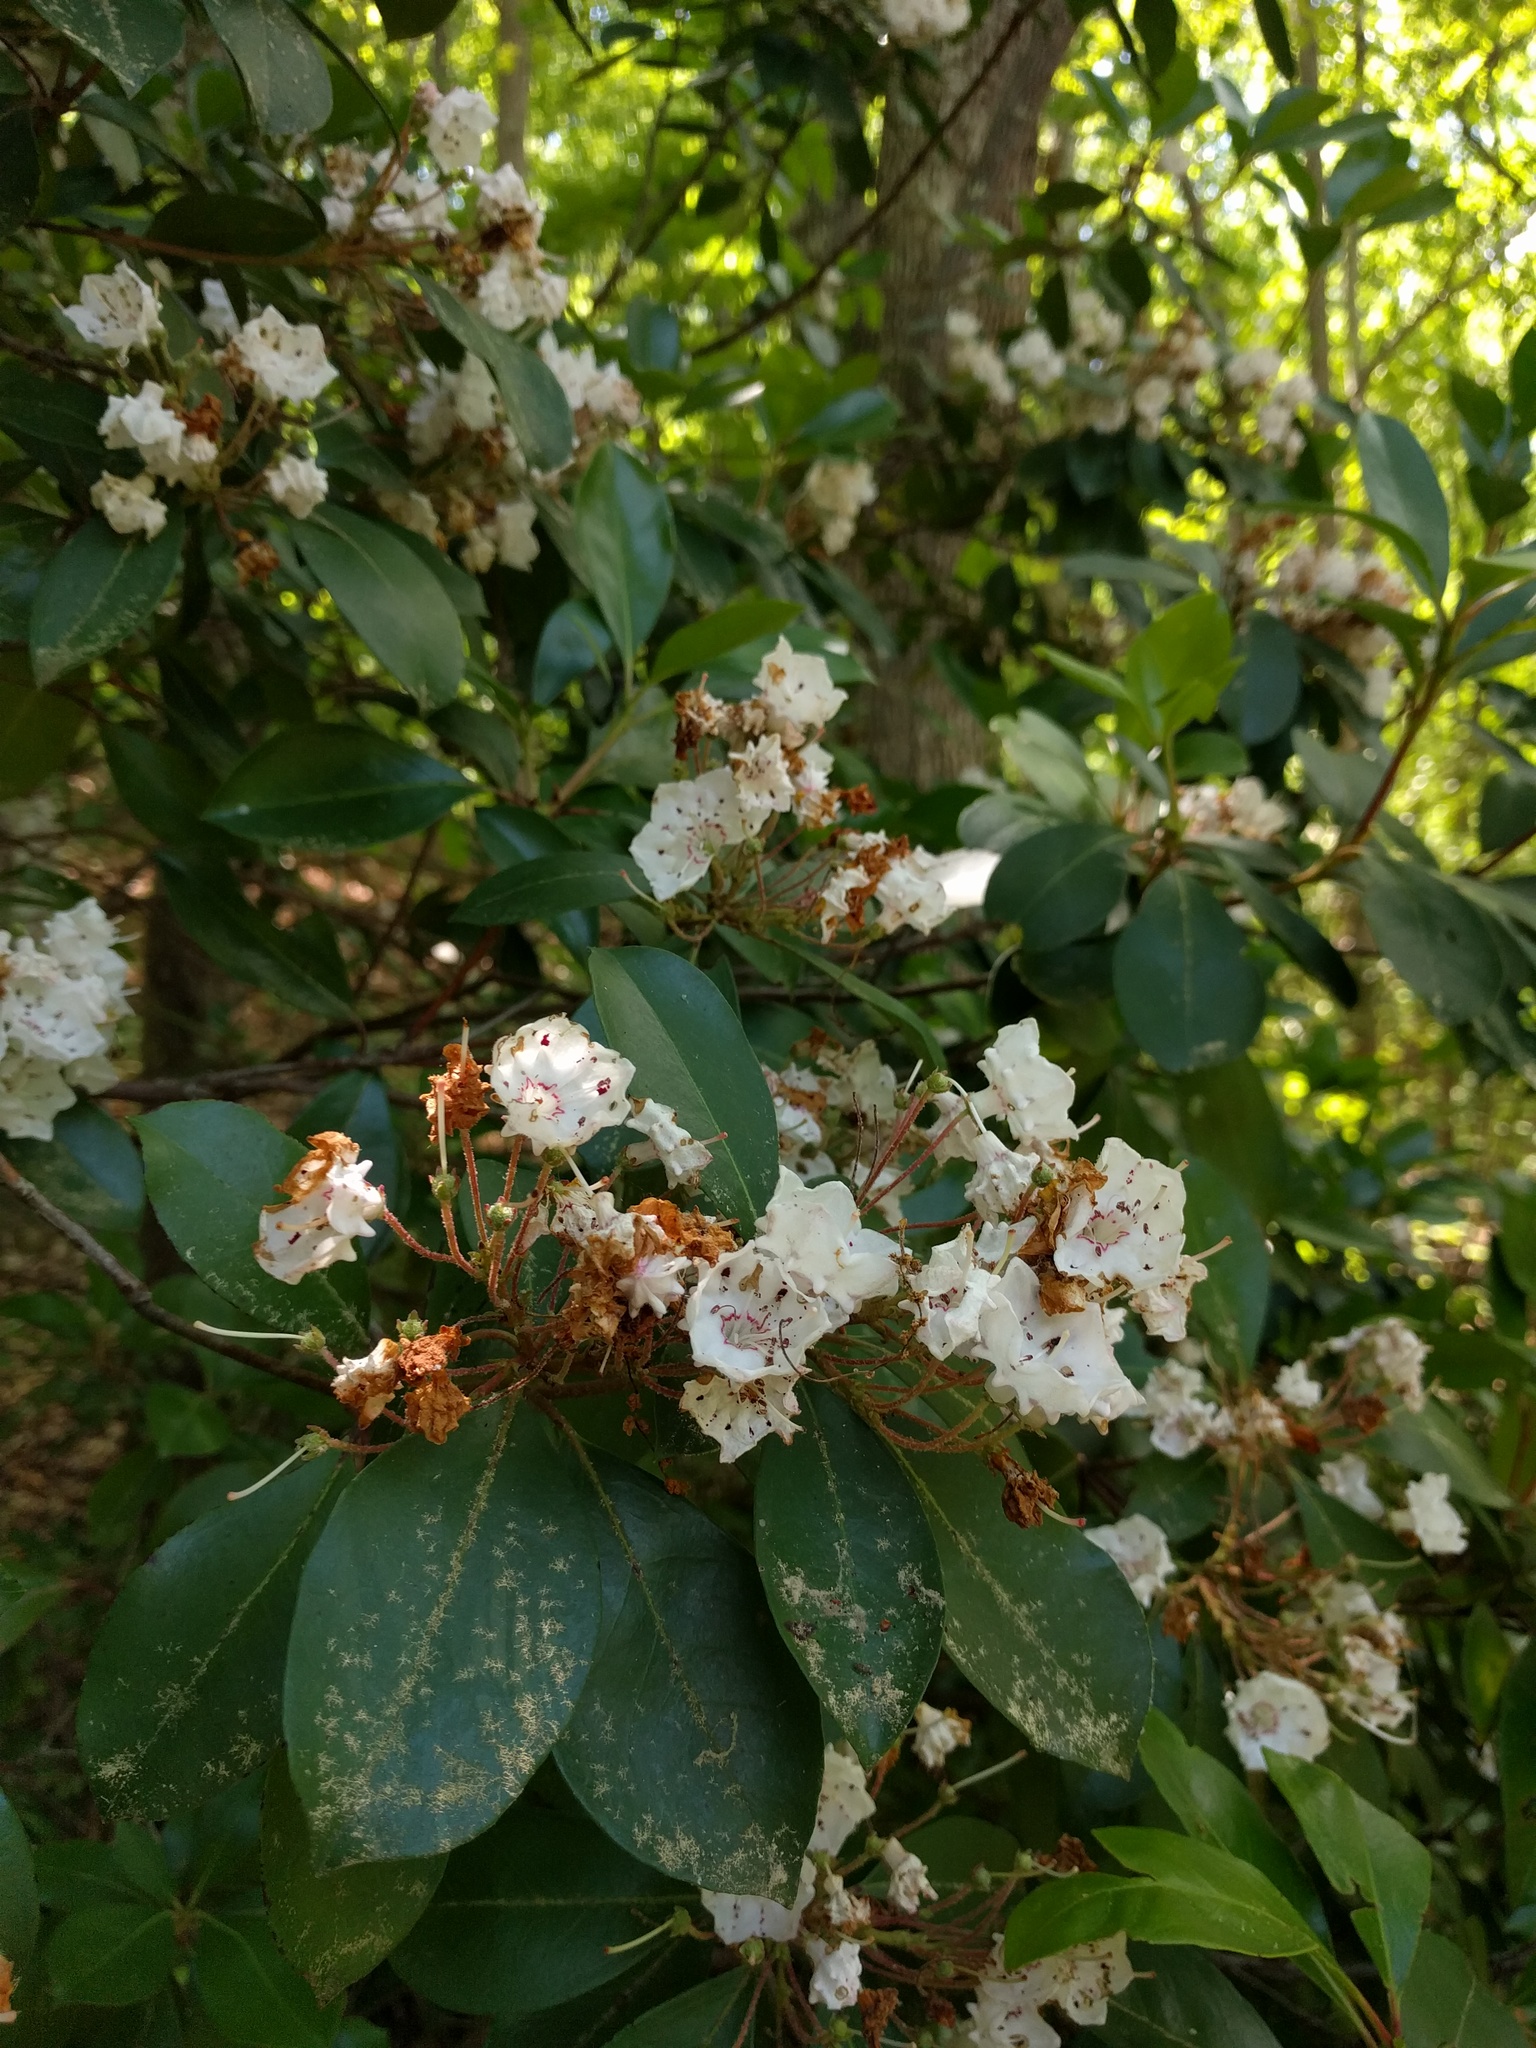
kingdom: Plantae
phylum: Tracheophyta
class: Magnoliopsida
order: Ericales
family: Ericaceae
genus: Kalmia
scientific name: Kalmia latifolia
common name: Mountain-laurel
